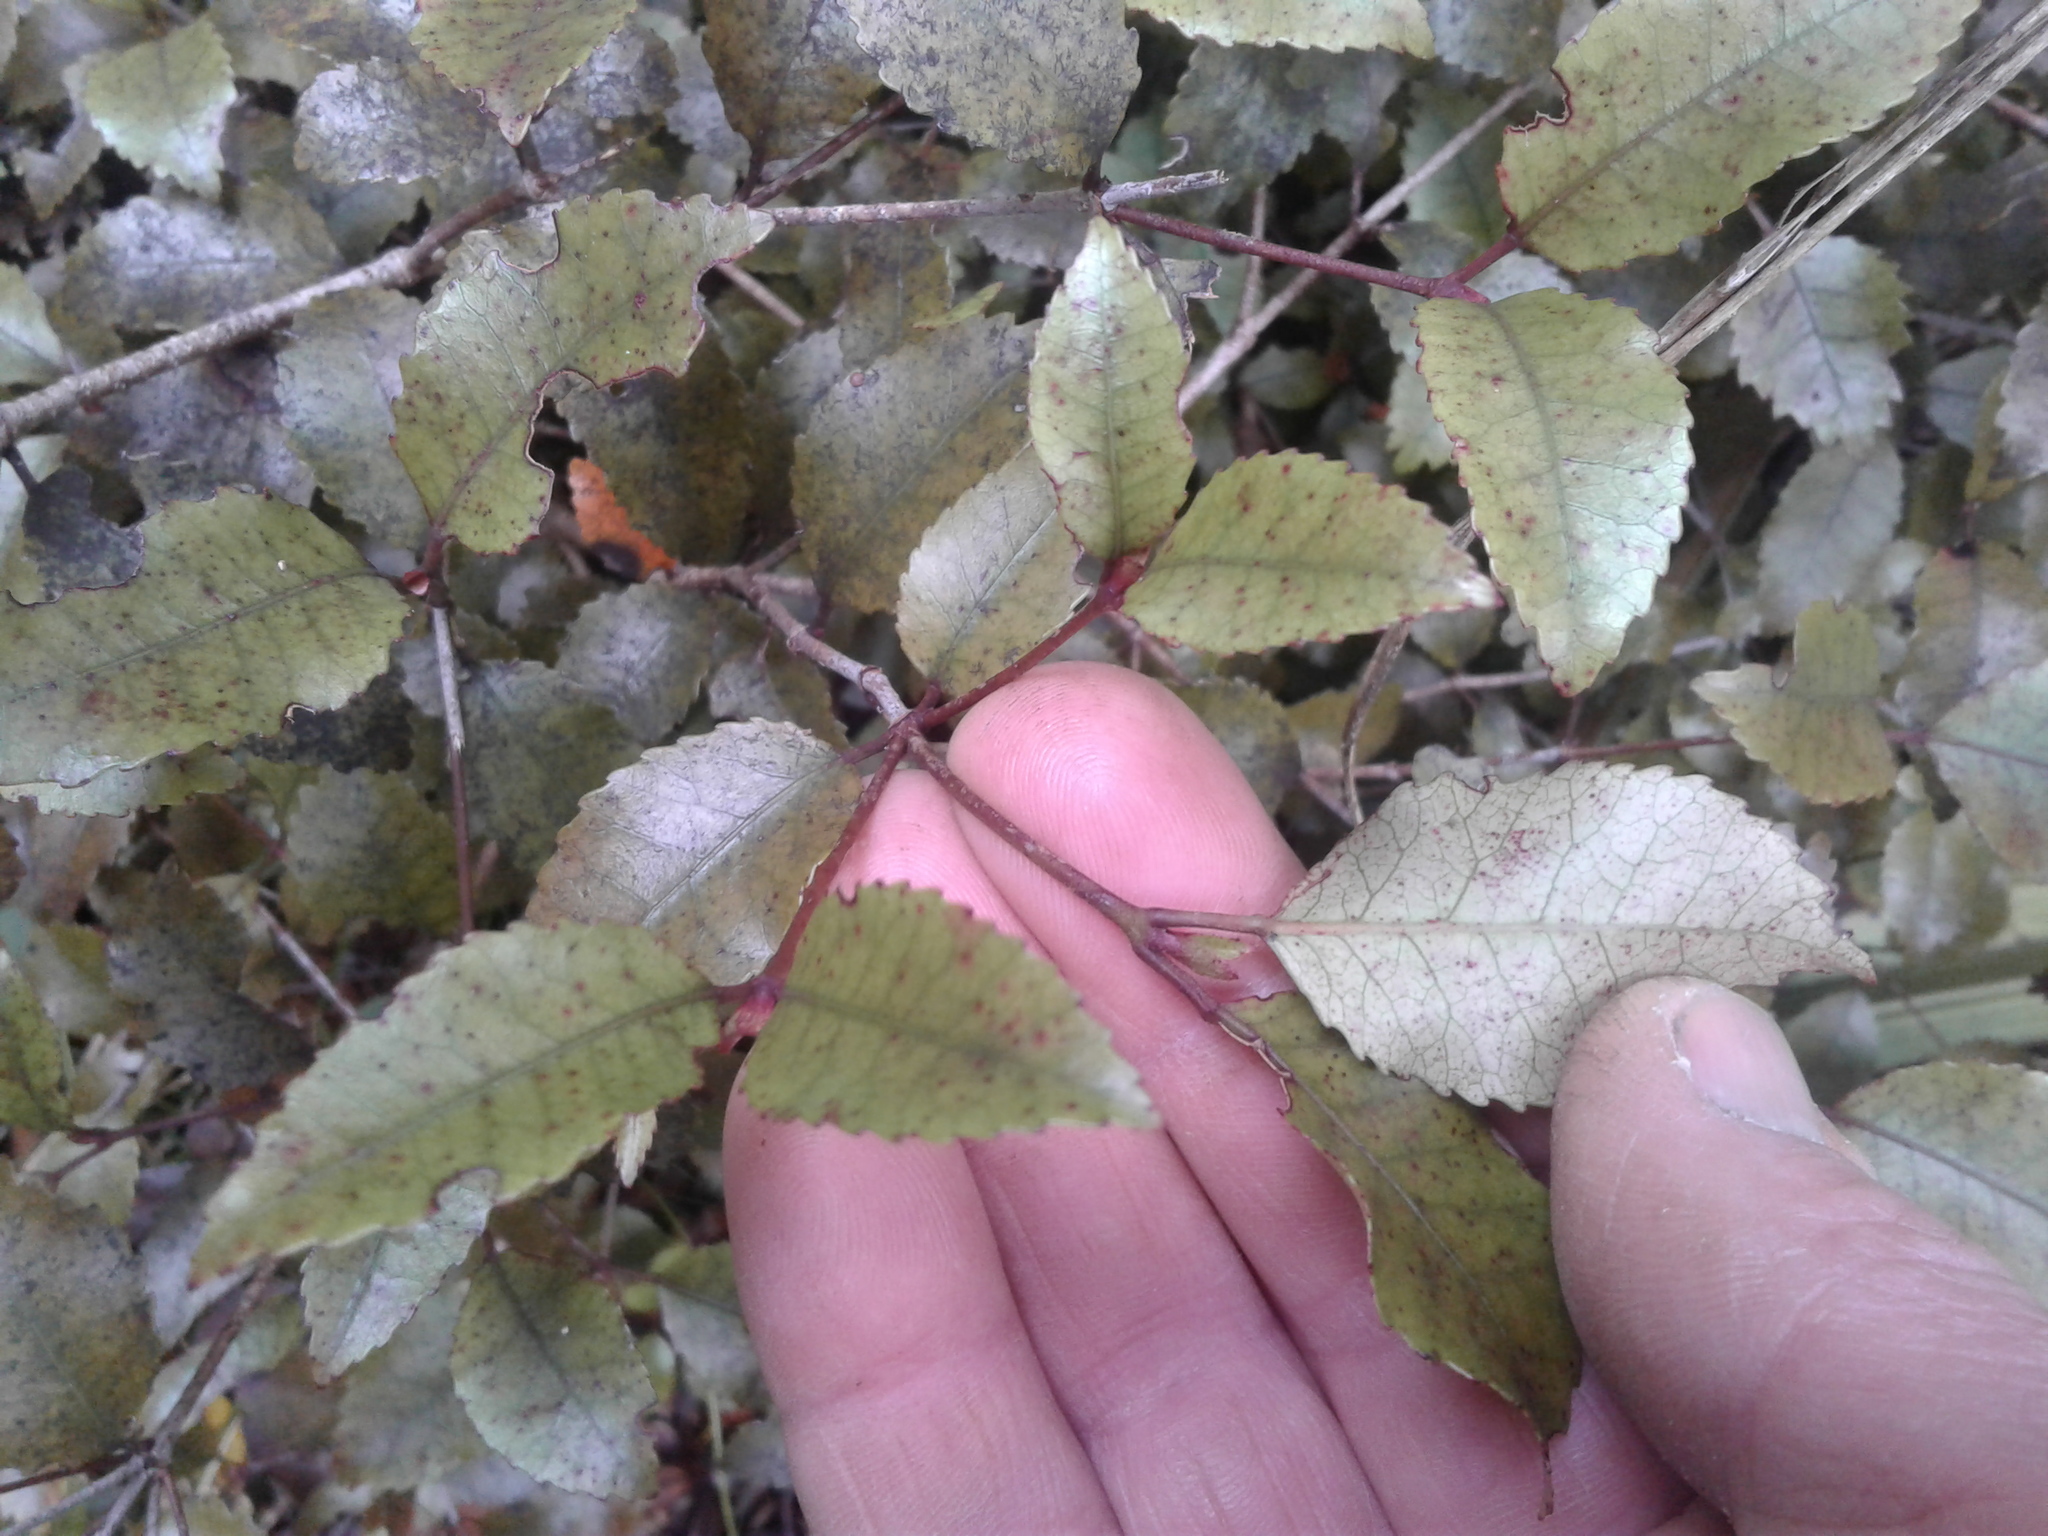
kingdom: Plantae
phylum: Tracheophyta
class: Magnoliopsida
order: Oxalidales
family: Cunoniaceae
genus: Pterophylla
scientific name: Pterophylla racemosa
